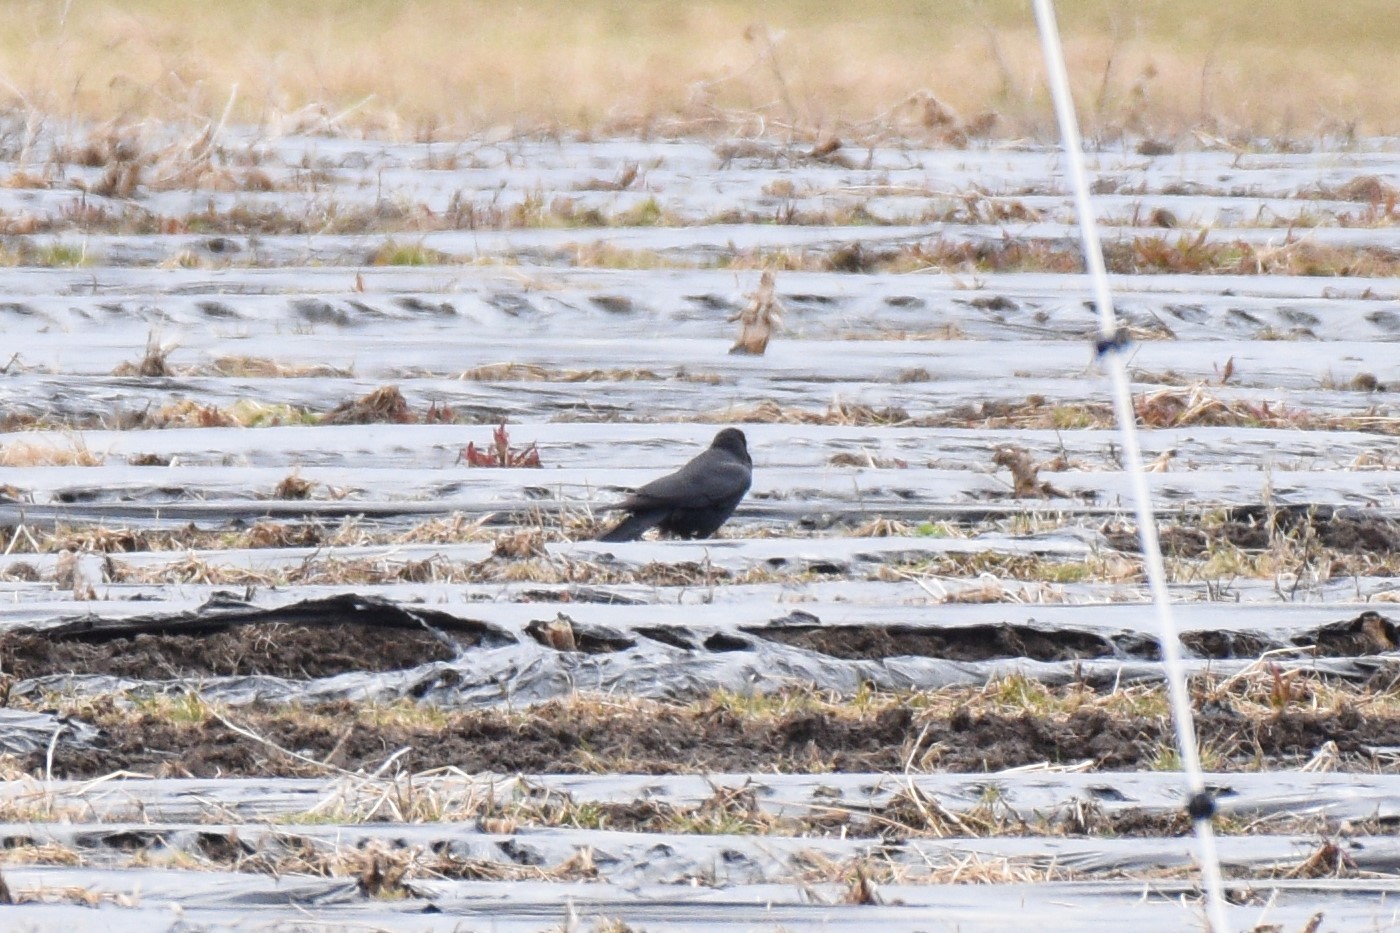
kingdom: Animalia
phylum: Chordata
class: Aves
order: Passeriformes
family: Corvidae
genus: Corvus
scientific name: Corvus brachyrhynchos
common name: American crow
